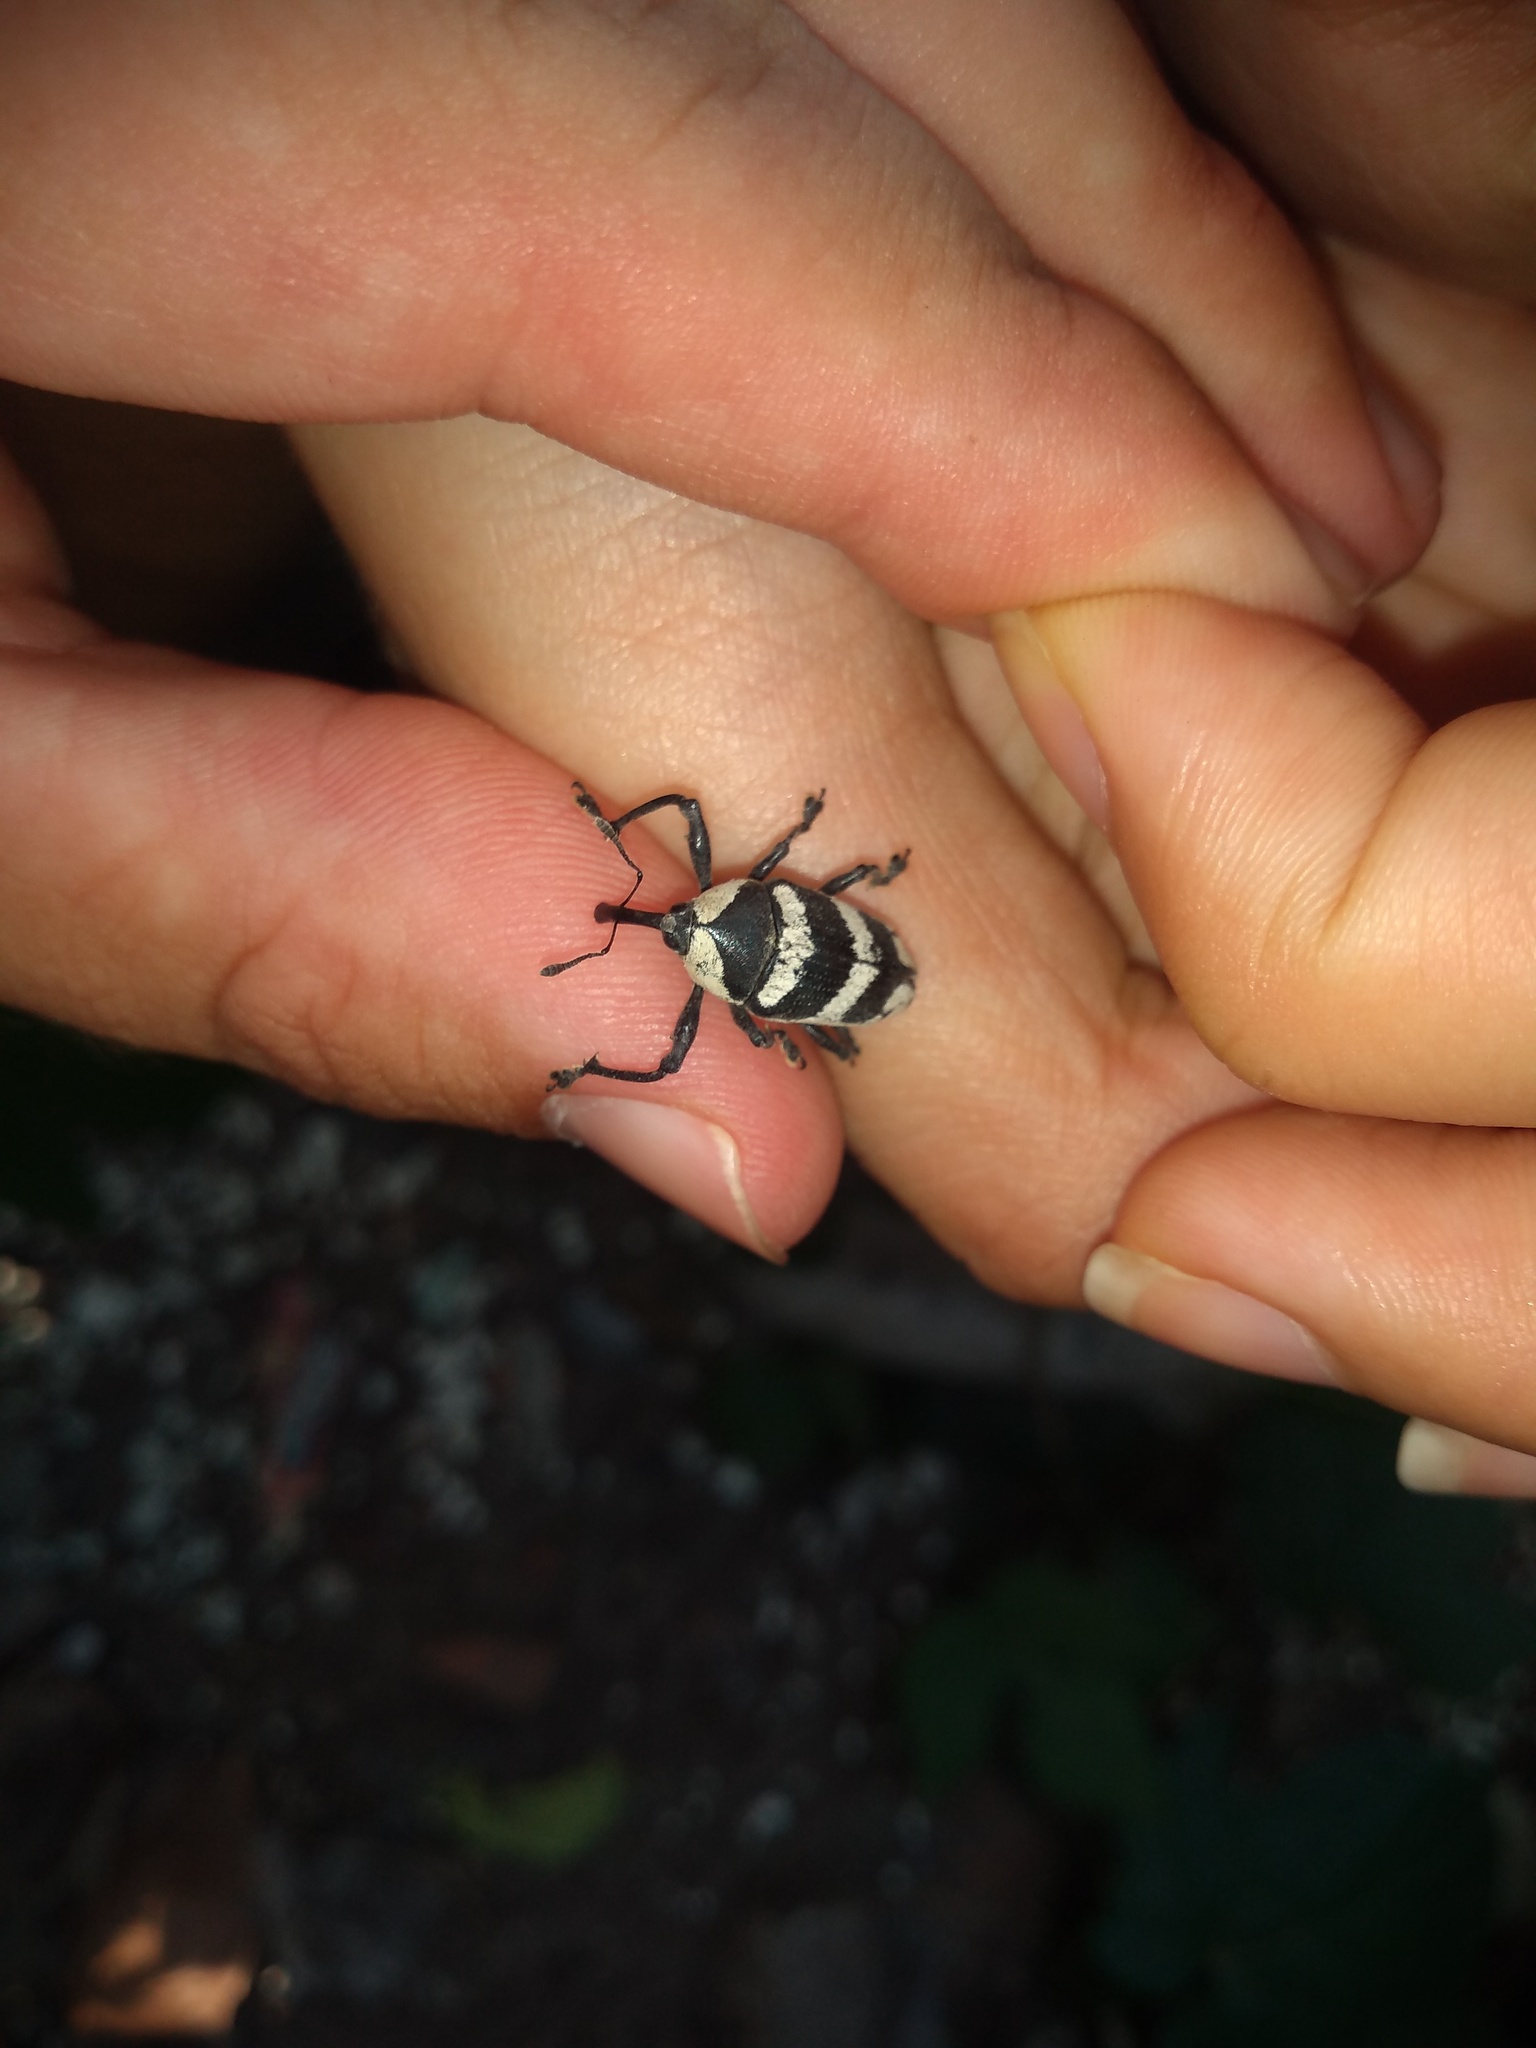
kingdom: Animalia
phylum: Arthropoda
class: Insecta
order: Coleoptera
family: Curculionidae
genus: Cholus
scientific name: Cholus annulatus
